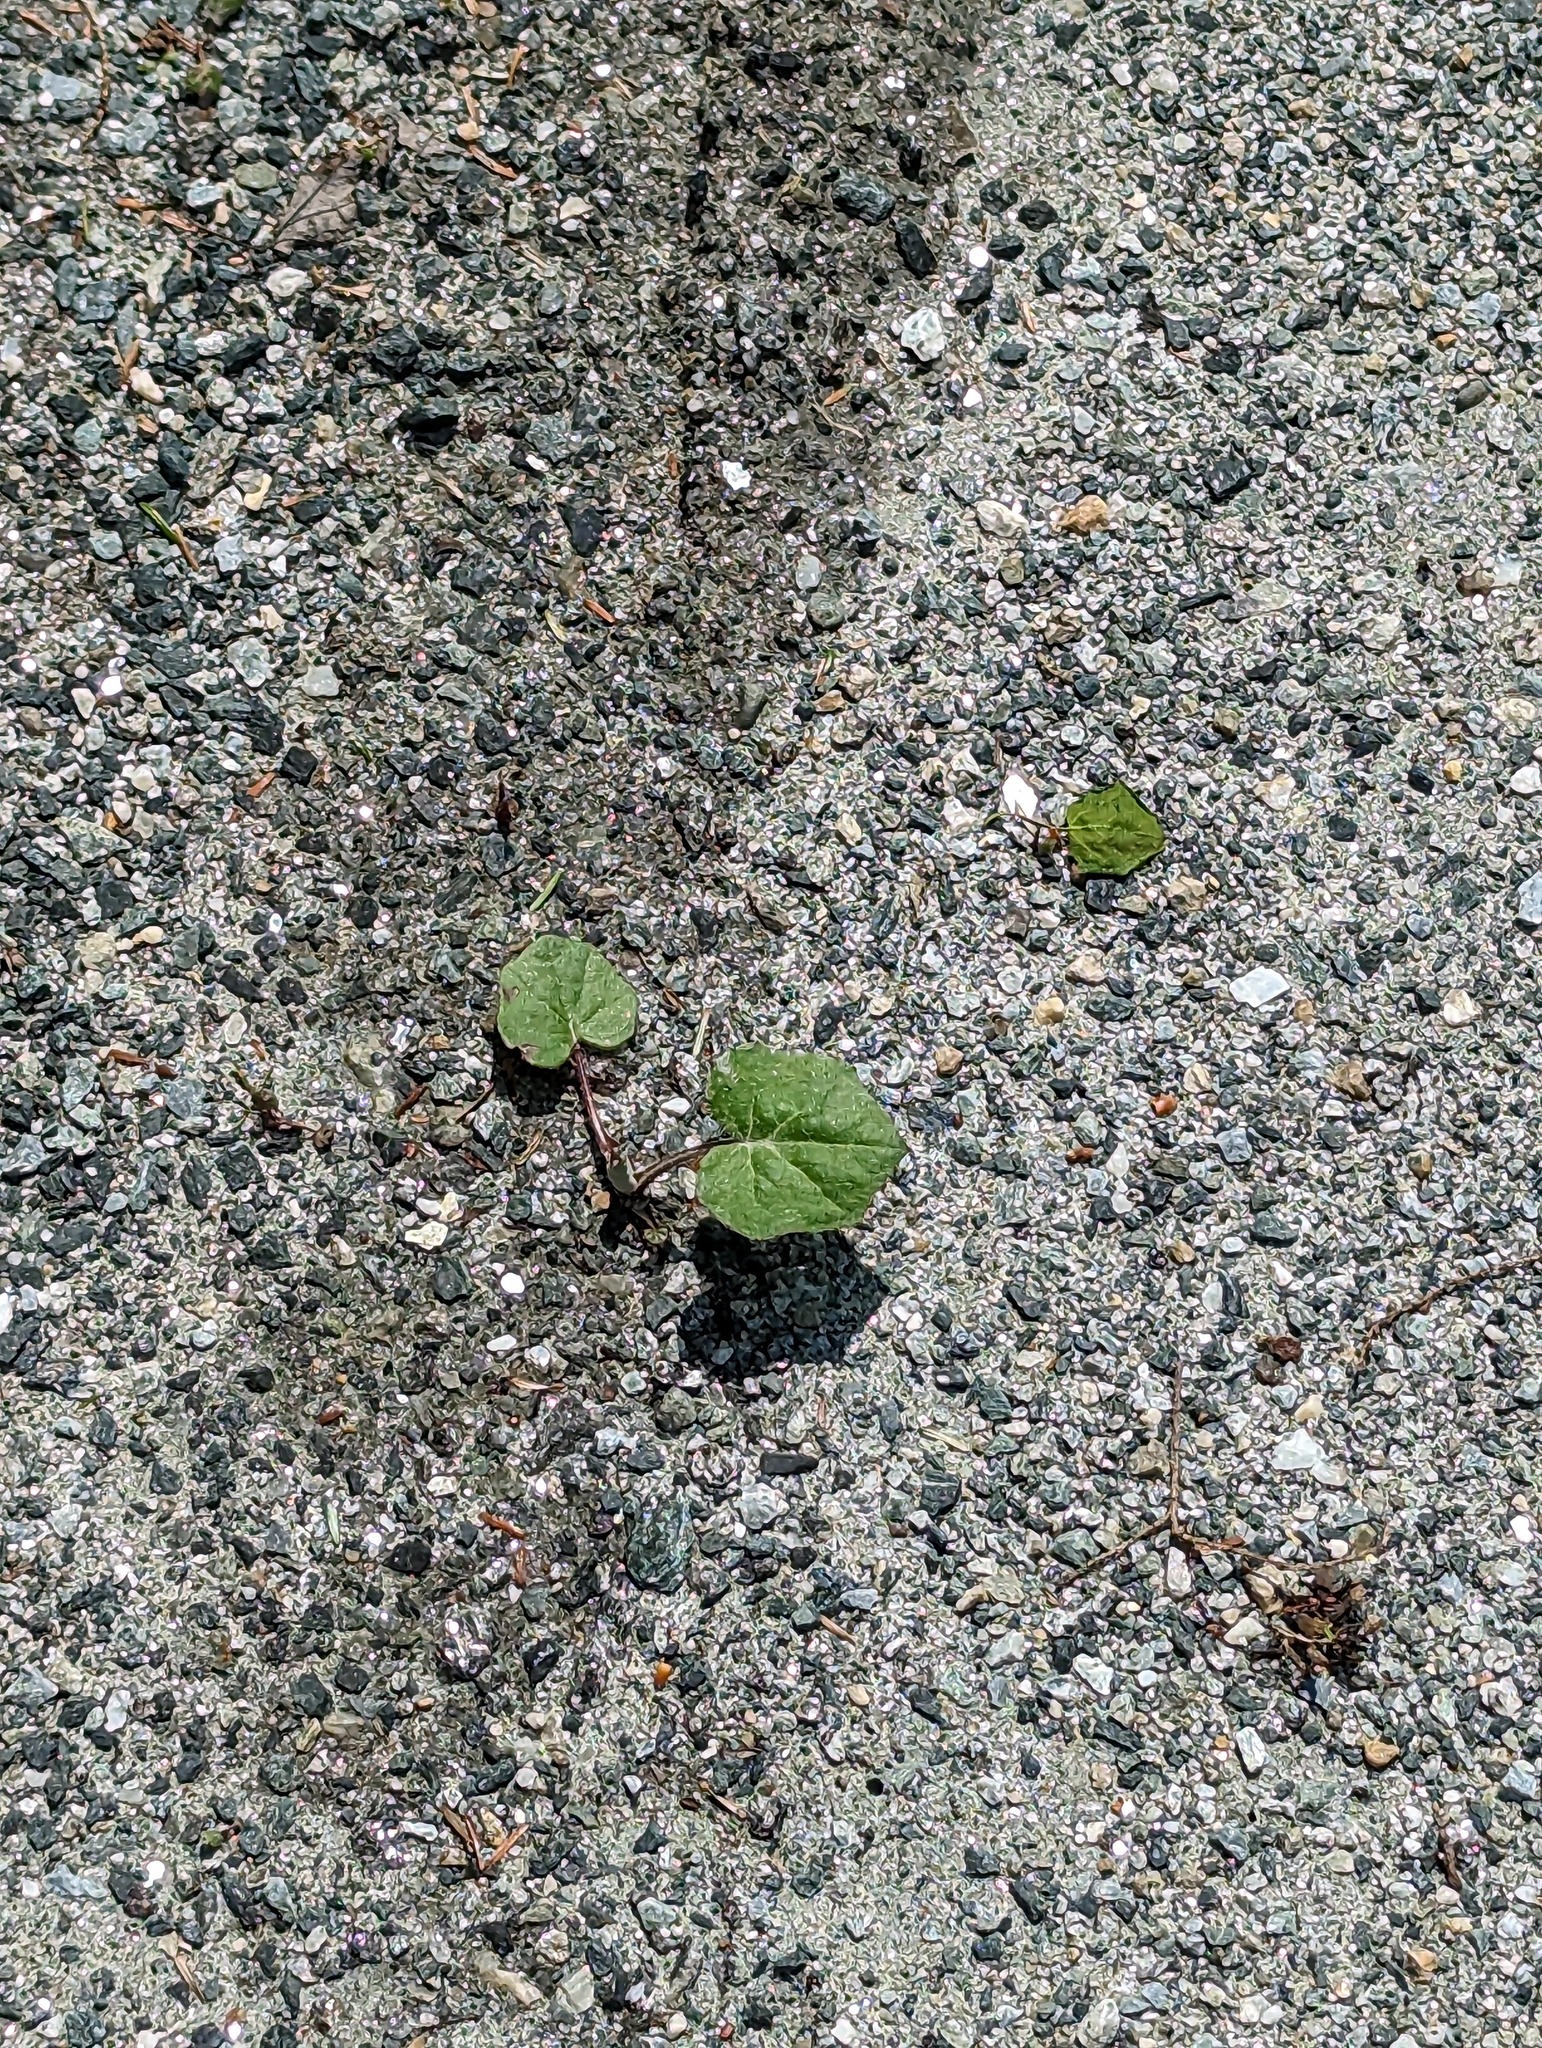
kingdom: Plantae
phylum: Tracheophyta
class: Magnoliopsida
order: Asterales
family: Asteraceae
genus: Tussilago
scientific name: Tussilago farfara
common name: Coltsfoot
